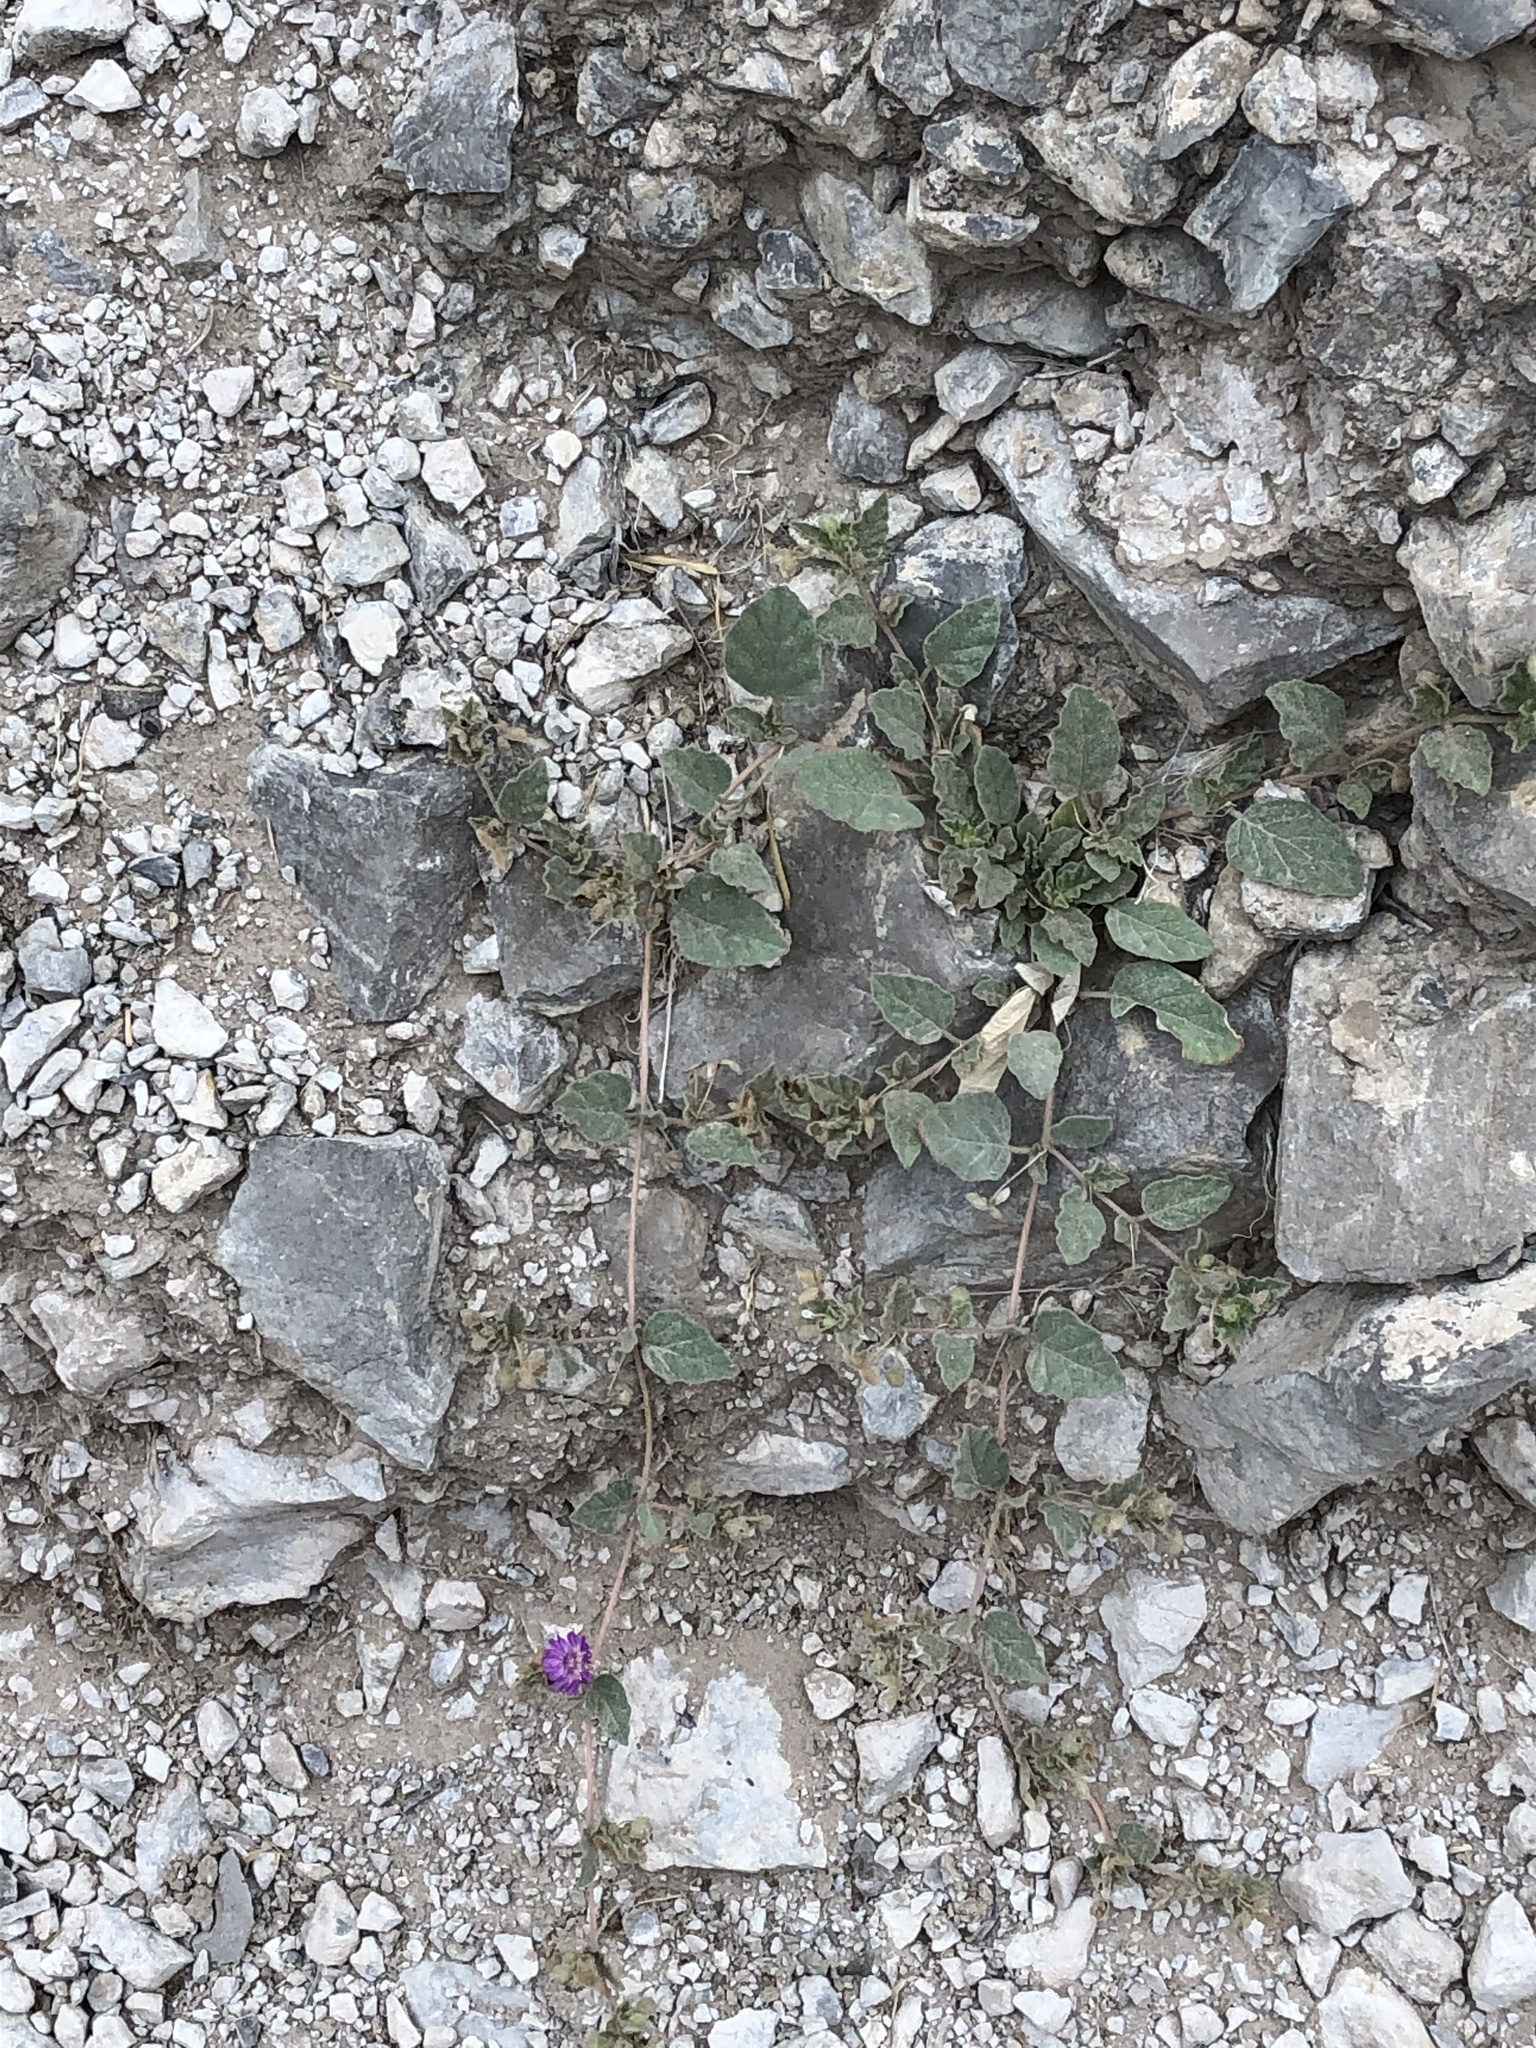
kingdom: Plantae
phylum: Tracheophyta
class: Magnoliopsida
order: Caryophyllales
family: Nyctaginaceae
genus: Allionia
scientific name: Allionia incarnata
